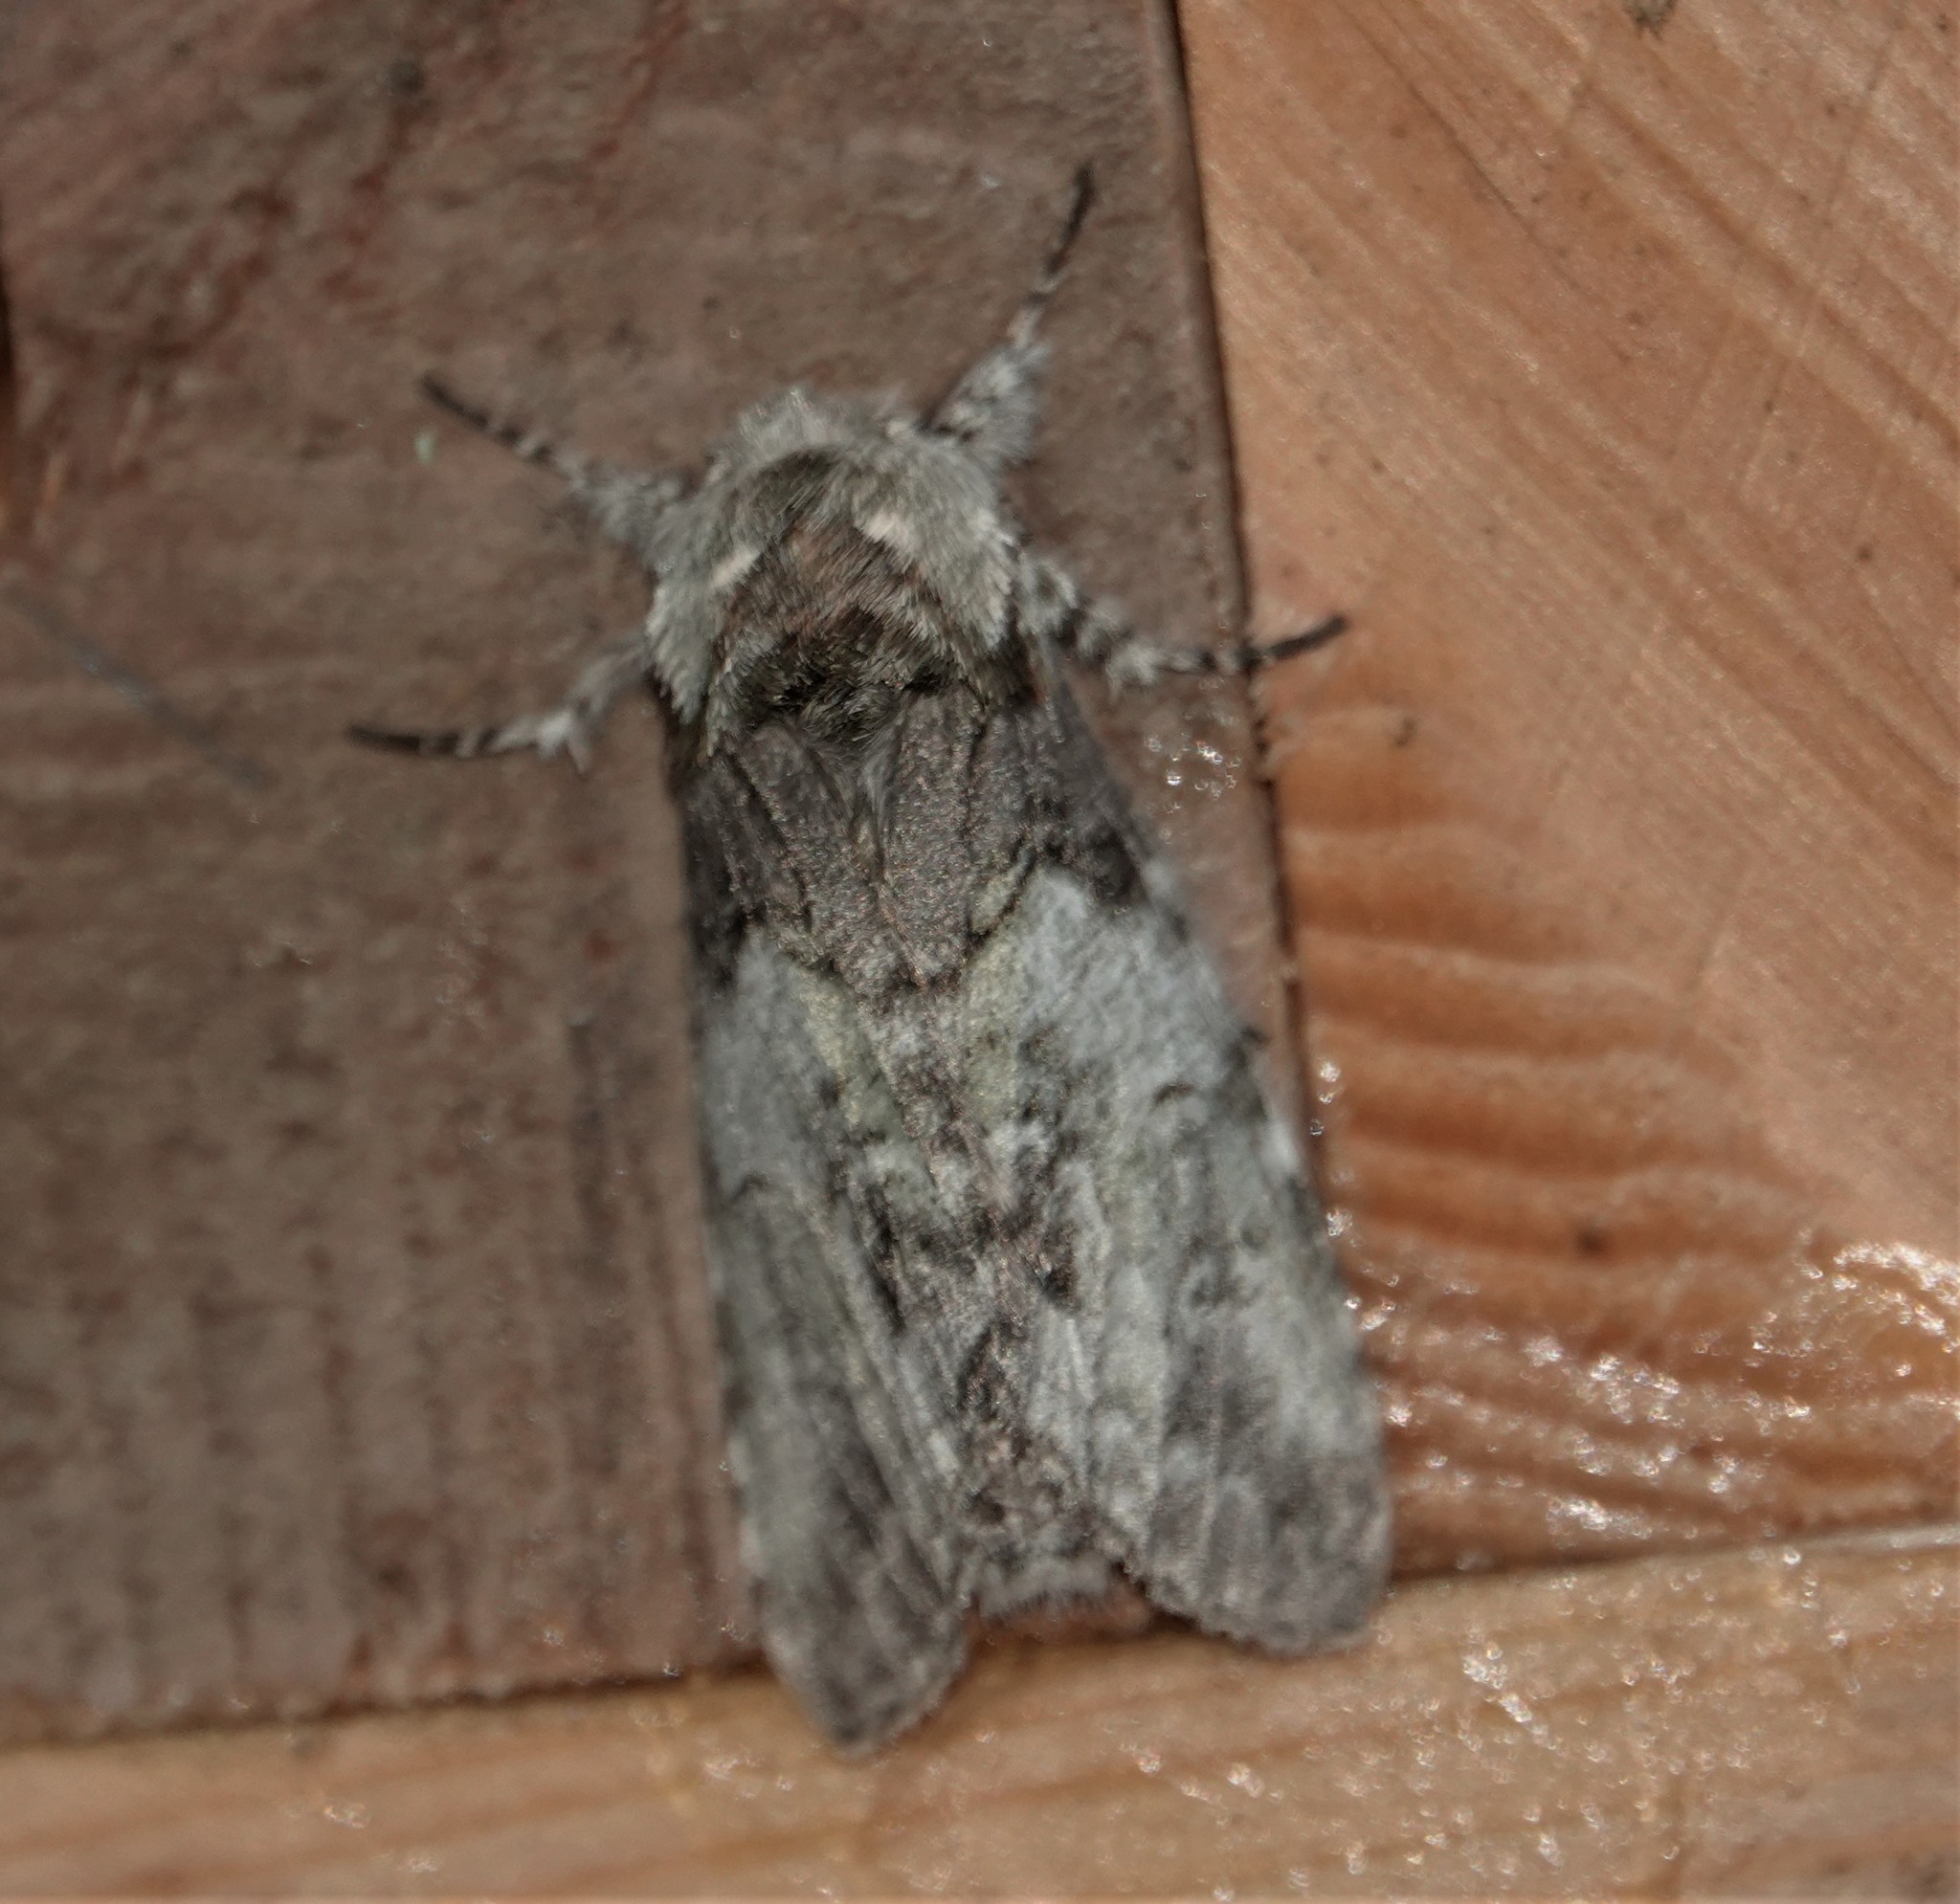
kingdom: Animalia
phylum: Arthropoda
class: Insecta
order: Lepidoptera
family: Notodontidae
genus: Macrurocampa
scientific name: Macrurocampa marthesia
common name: Mottled prominent
